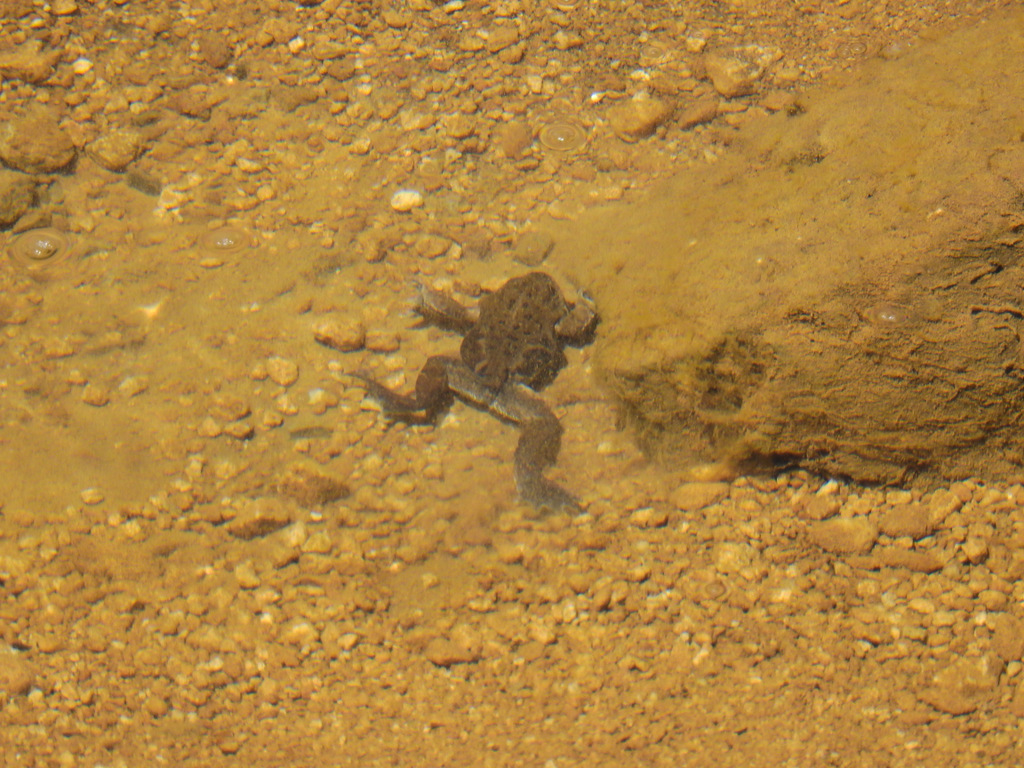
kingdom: Animalia
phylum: Chordata
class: Amphibia
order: Anura
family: Leptodactylidae
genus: Pleurodema
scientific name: Pleurodema bufoninum
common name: Large four-eyed frog
